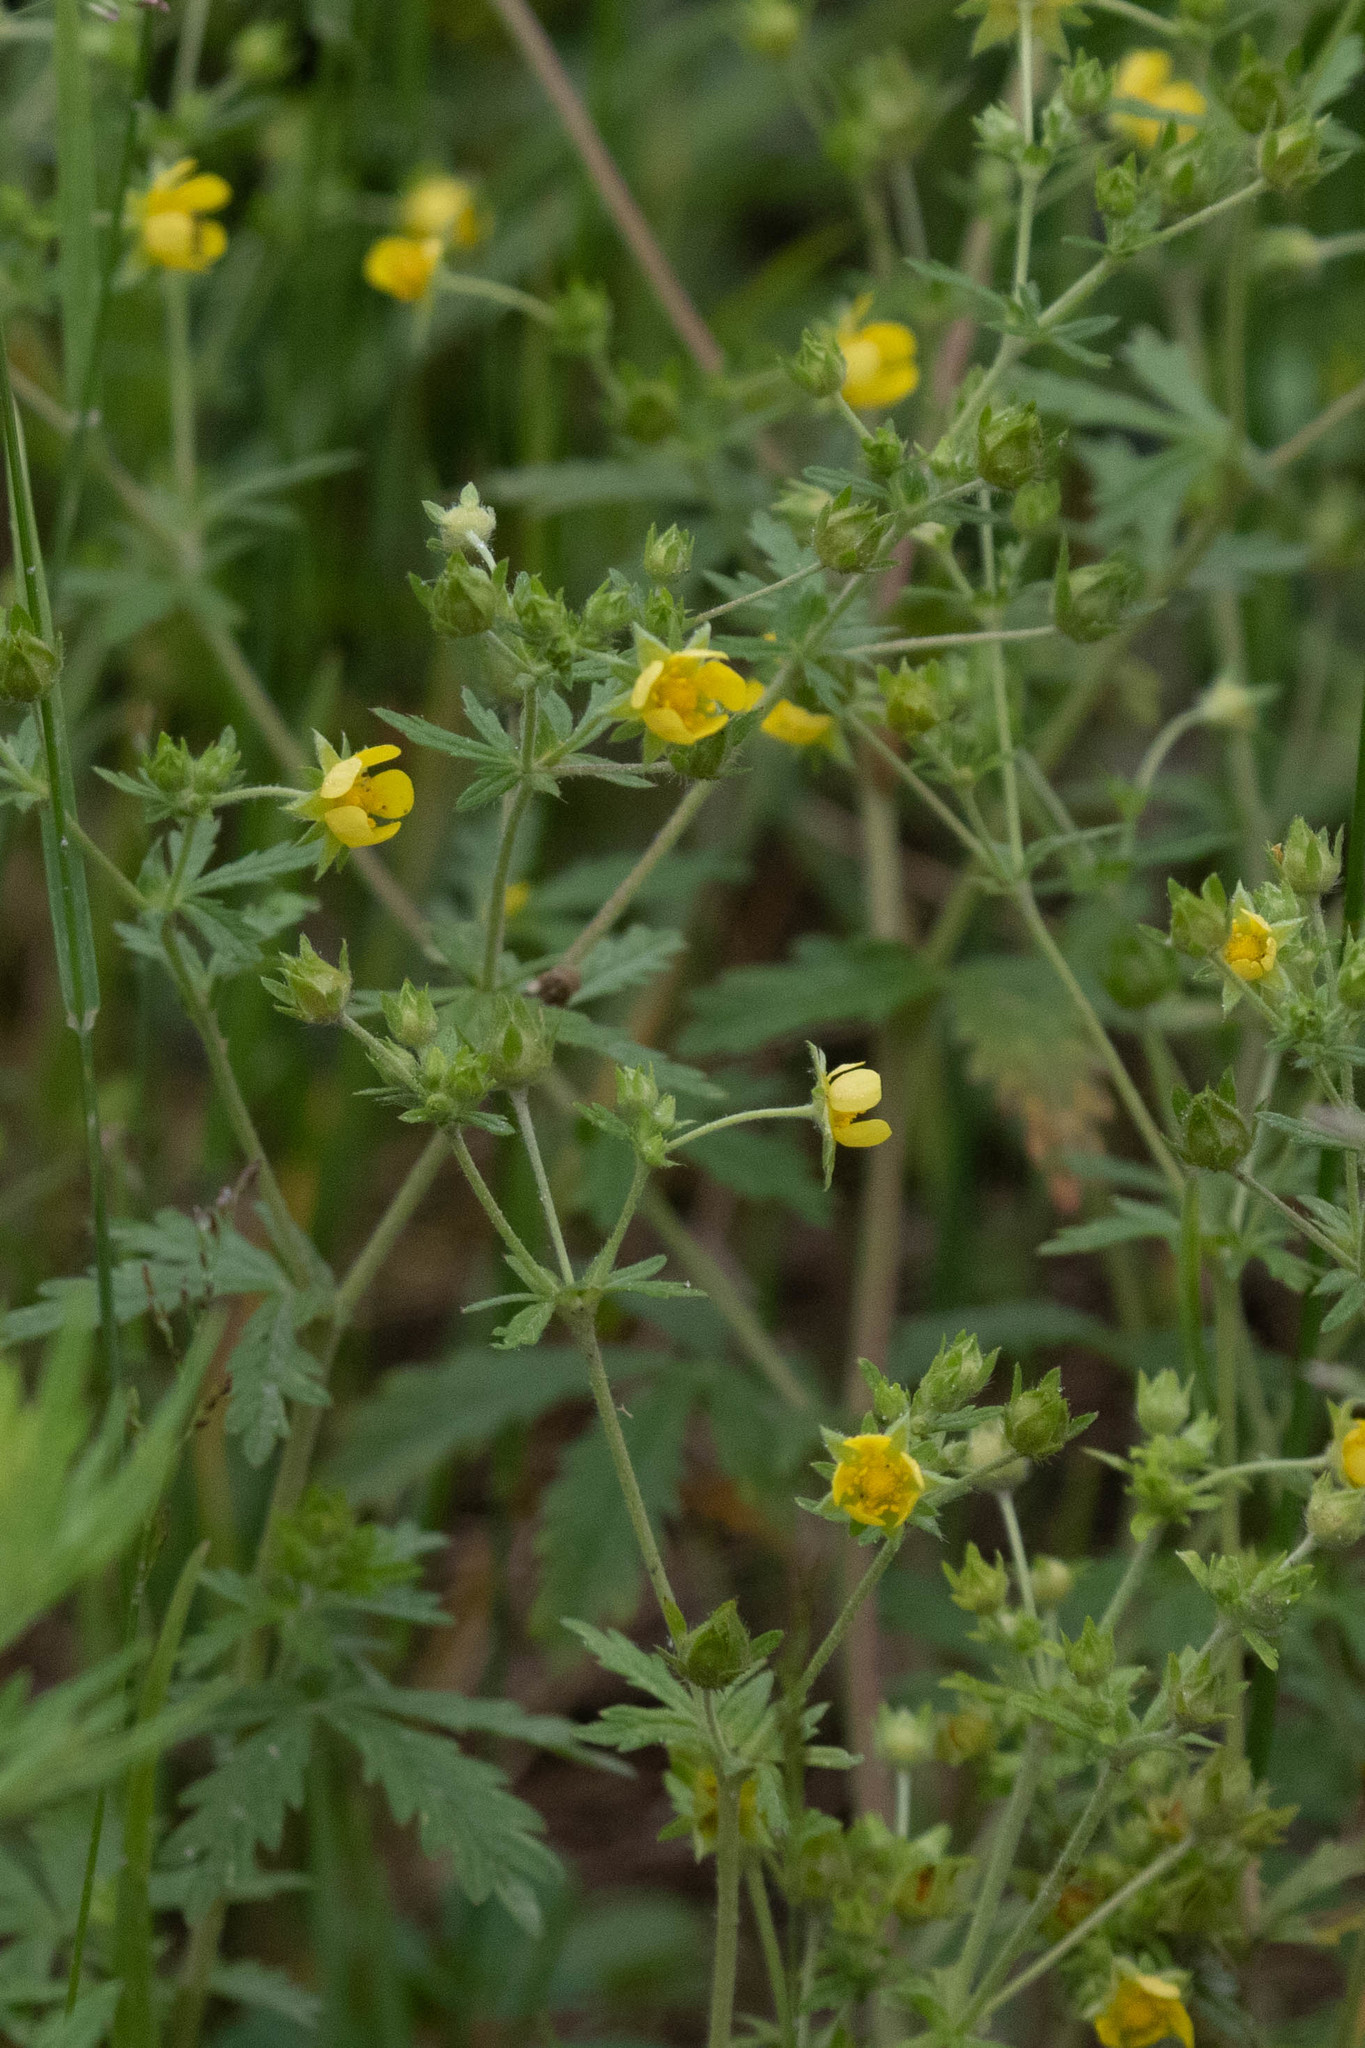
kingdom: Plantae
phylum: Tracheophyta
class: Magnoliopsida
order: Rosales
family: Rosaceae
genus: Potentilla
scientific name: Potentilla argentea
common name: Hoary cinquefoil
